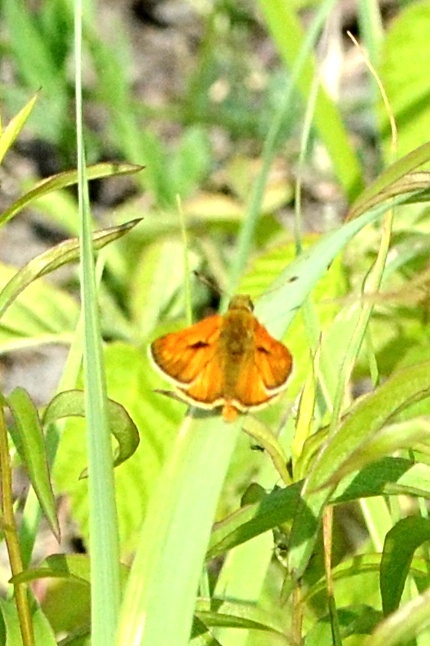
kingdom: Animalia
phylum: Arthropoda
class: Insecta
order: Lepidoptera
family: Hesperiidae
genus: Ochlodes
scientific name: Ochlodes venata
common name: Large skipper
